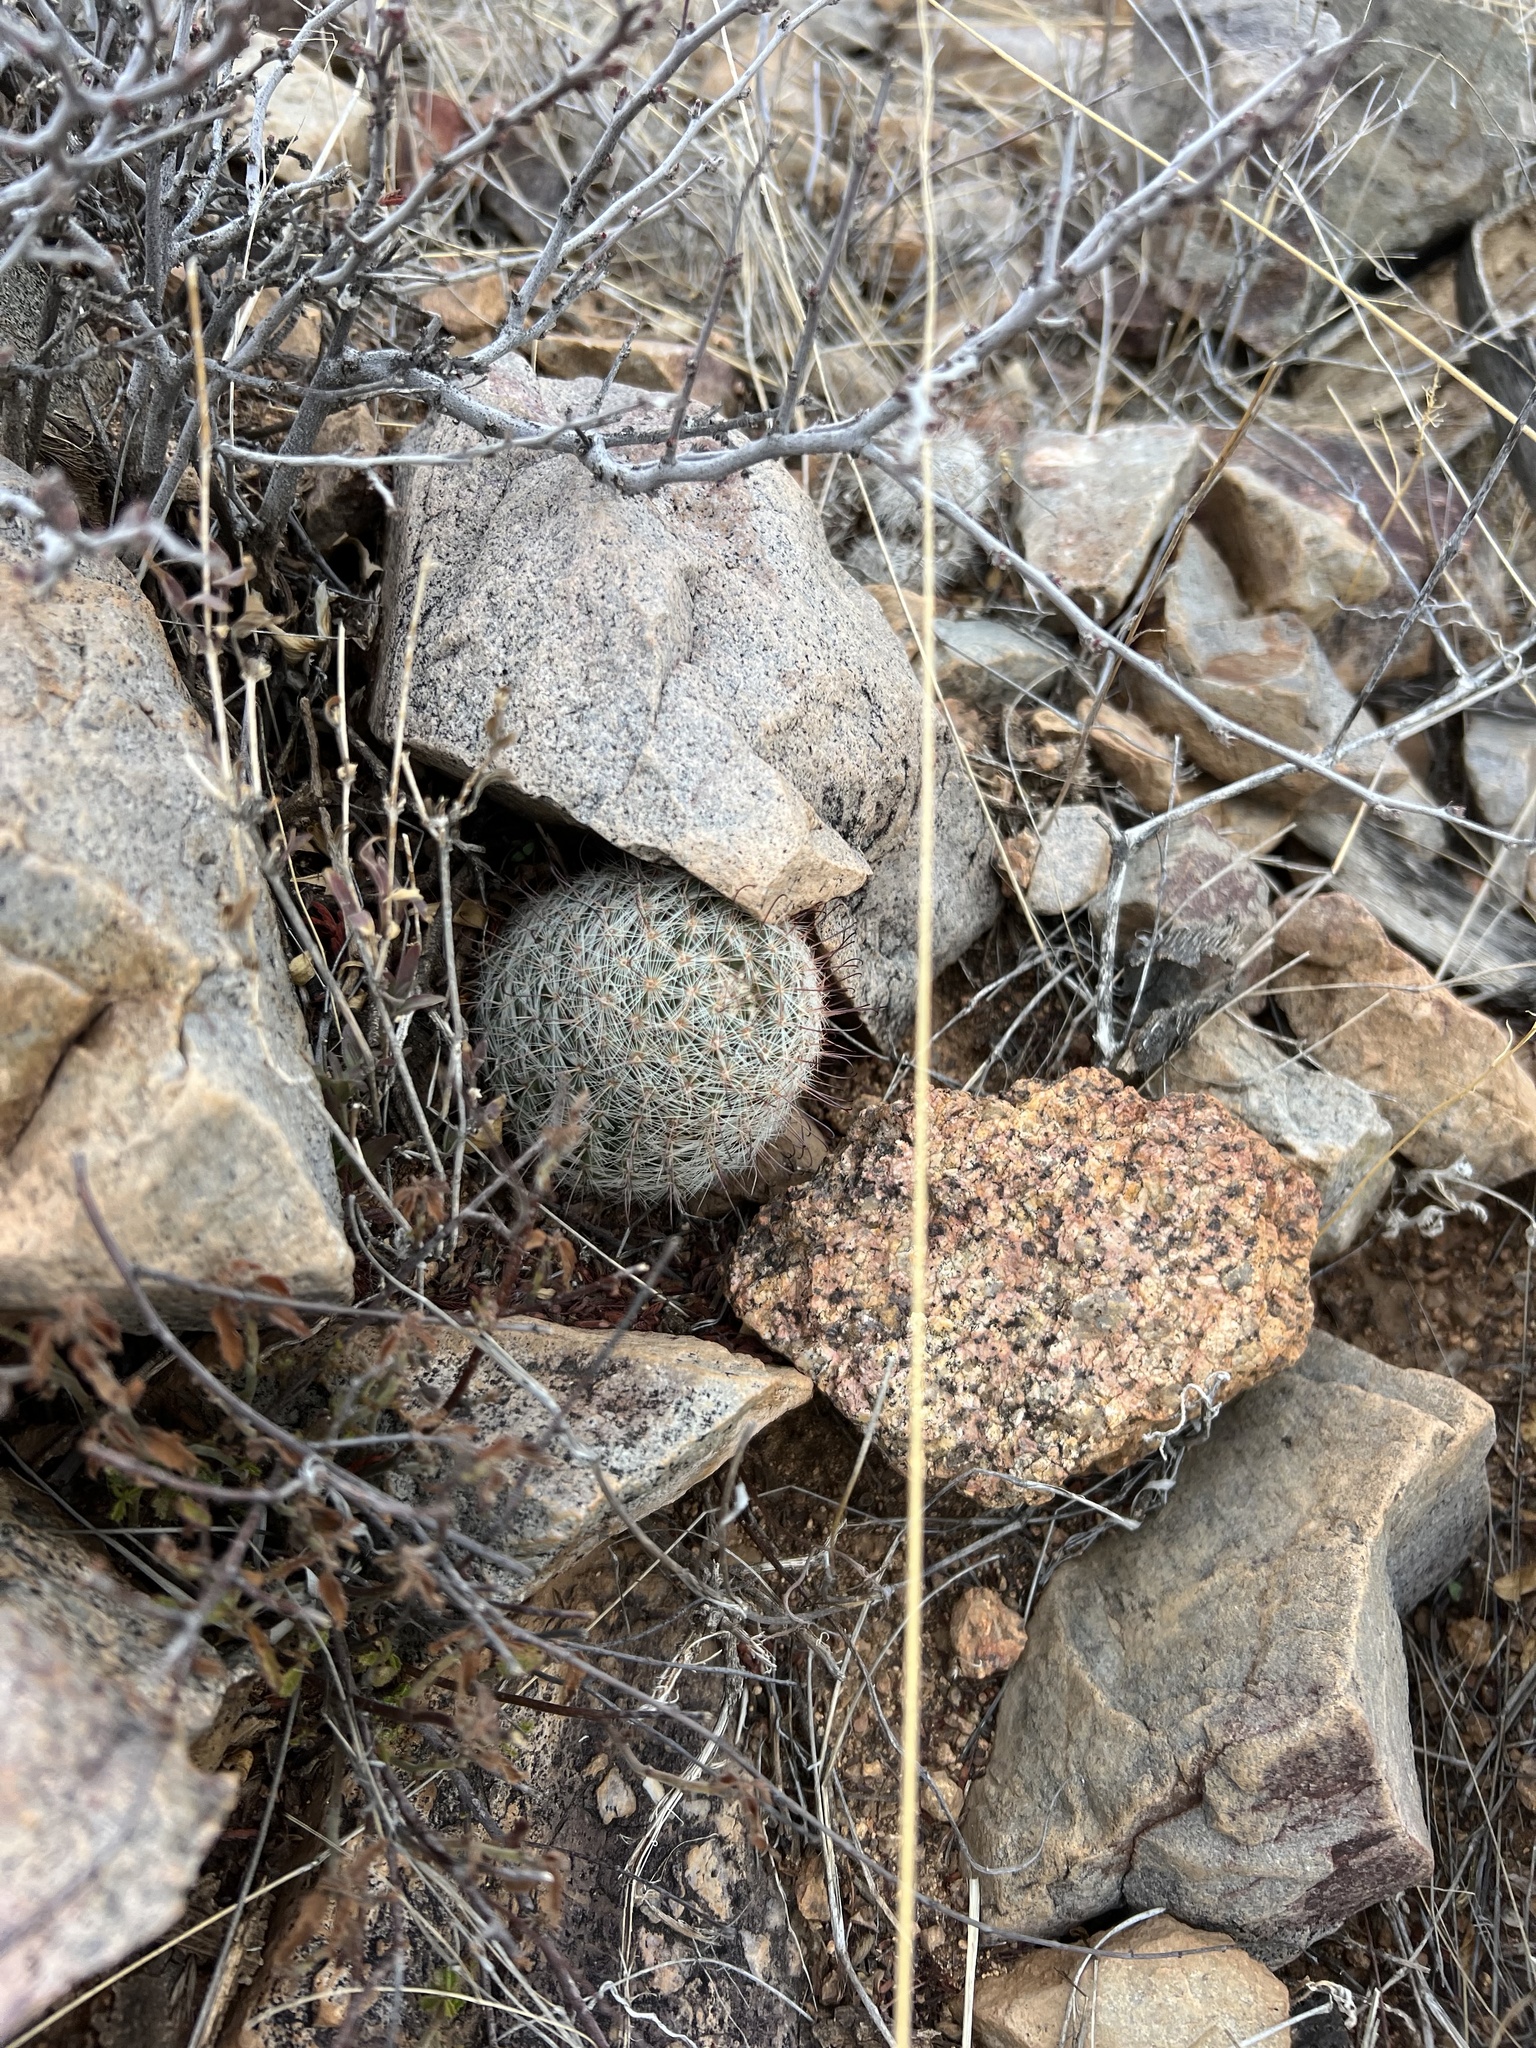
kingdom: Plantae
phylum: Tracheophyta
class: Magnoliopsida
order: Caryophyllales
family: Cactaceae
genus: Cochemiea
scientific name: Cochemiea grahamii
